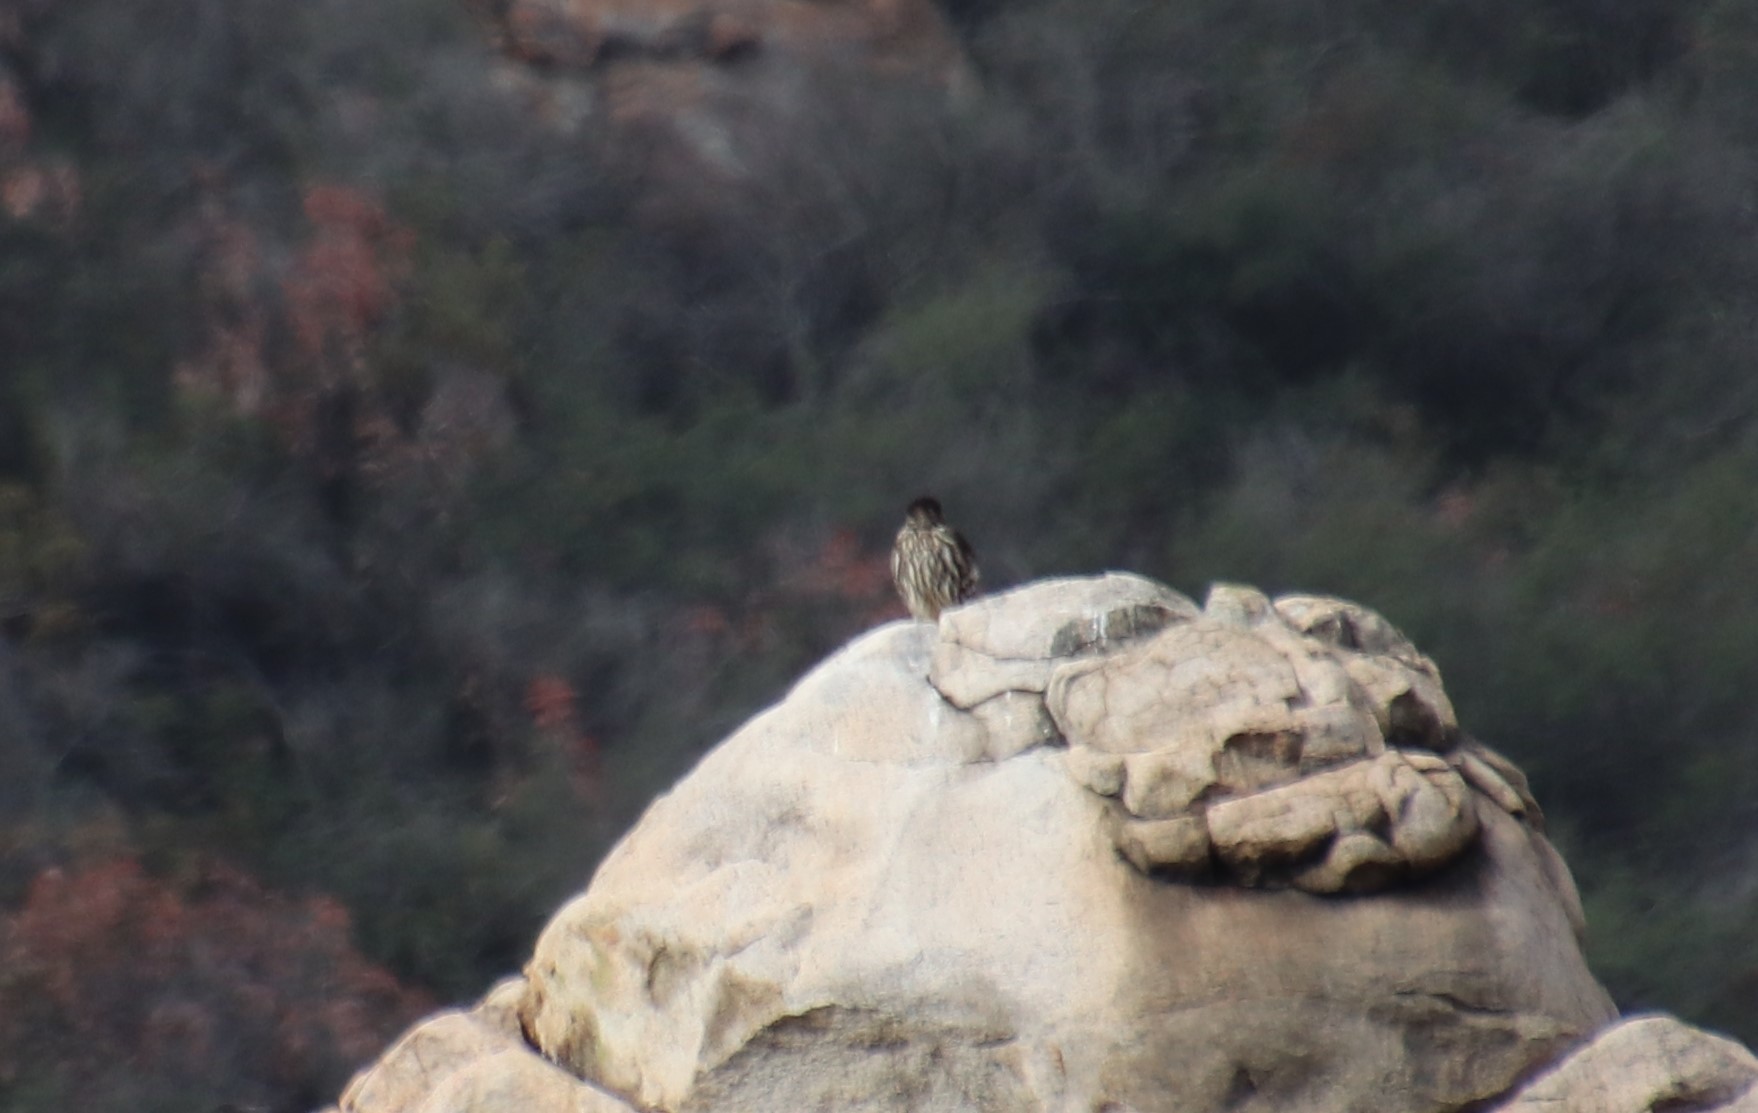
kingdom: Animalia
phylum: Chordata
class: Aves
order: Falconiformes
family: Falconidae
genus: Falco
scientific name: Falco columbarius
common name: Merlin
